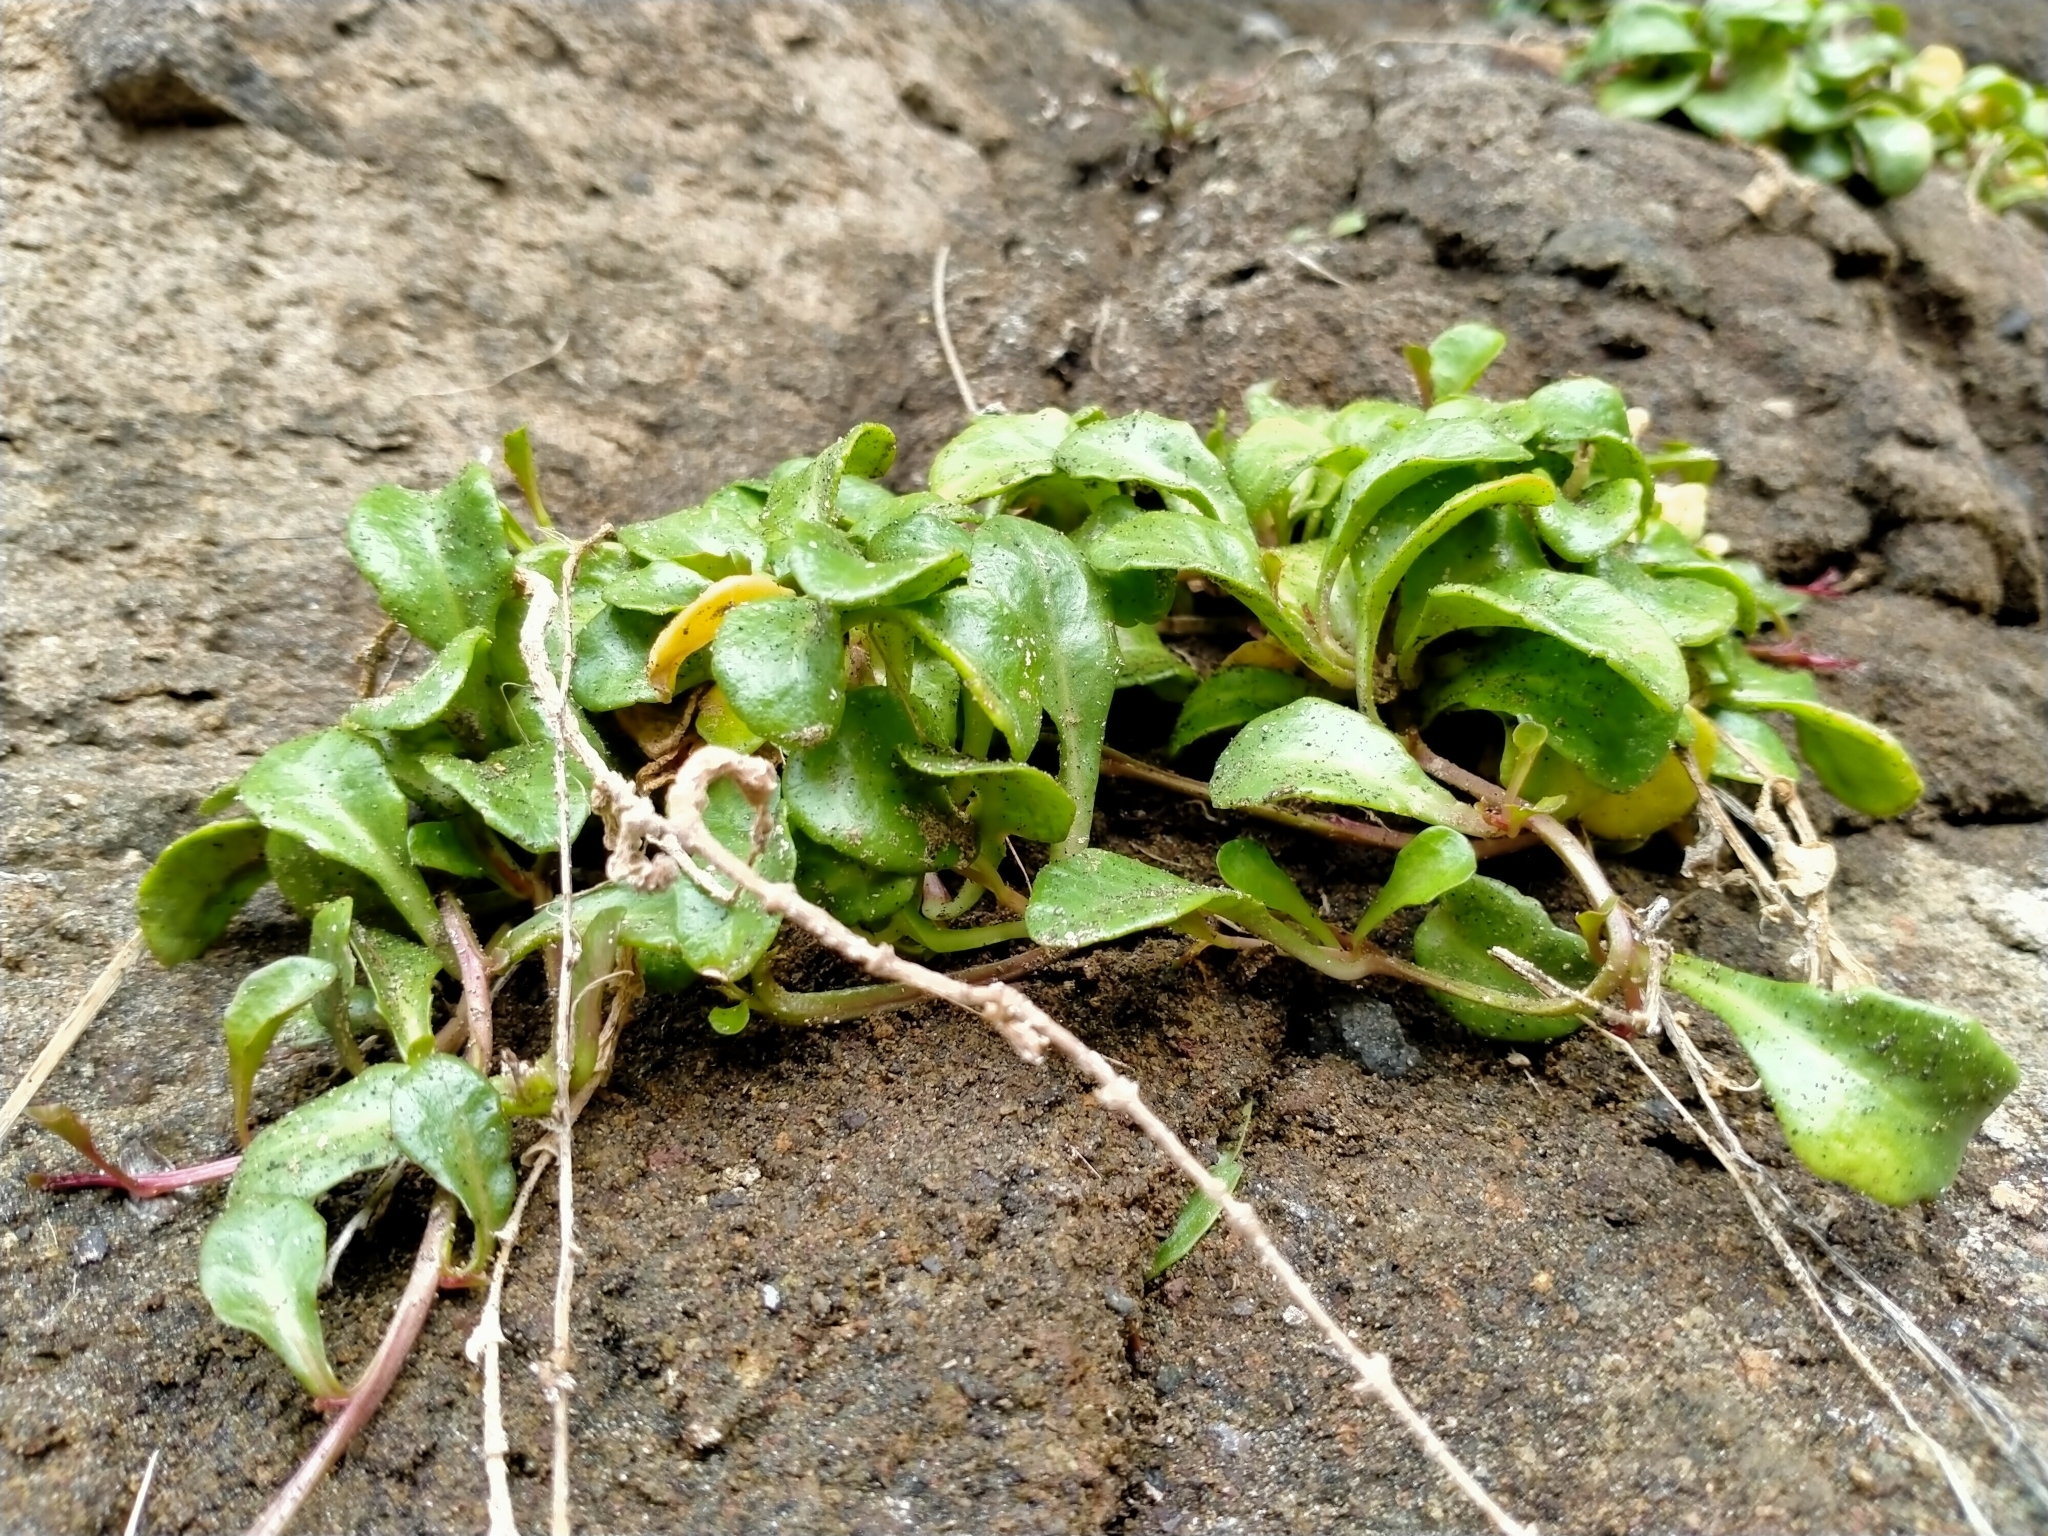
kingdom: Plantae
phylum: Tracheophyta
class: Magnoliopsida
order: Asterales
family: Campanulaceae
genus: Lobelia
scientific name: Lobelia anceps
